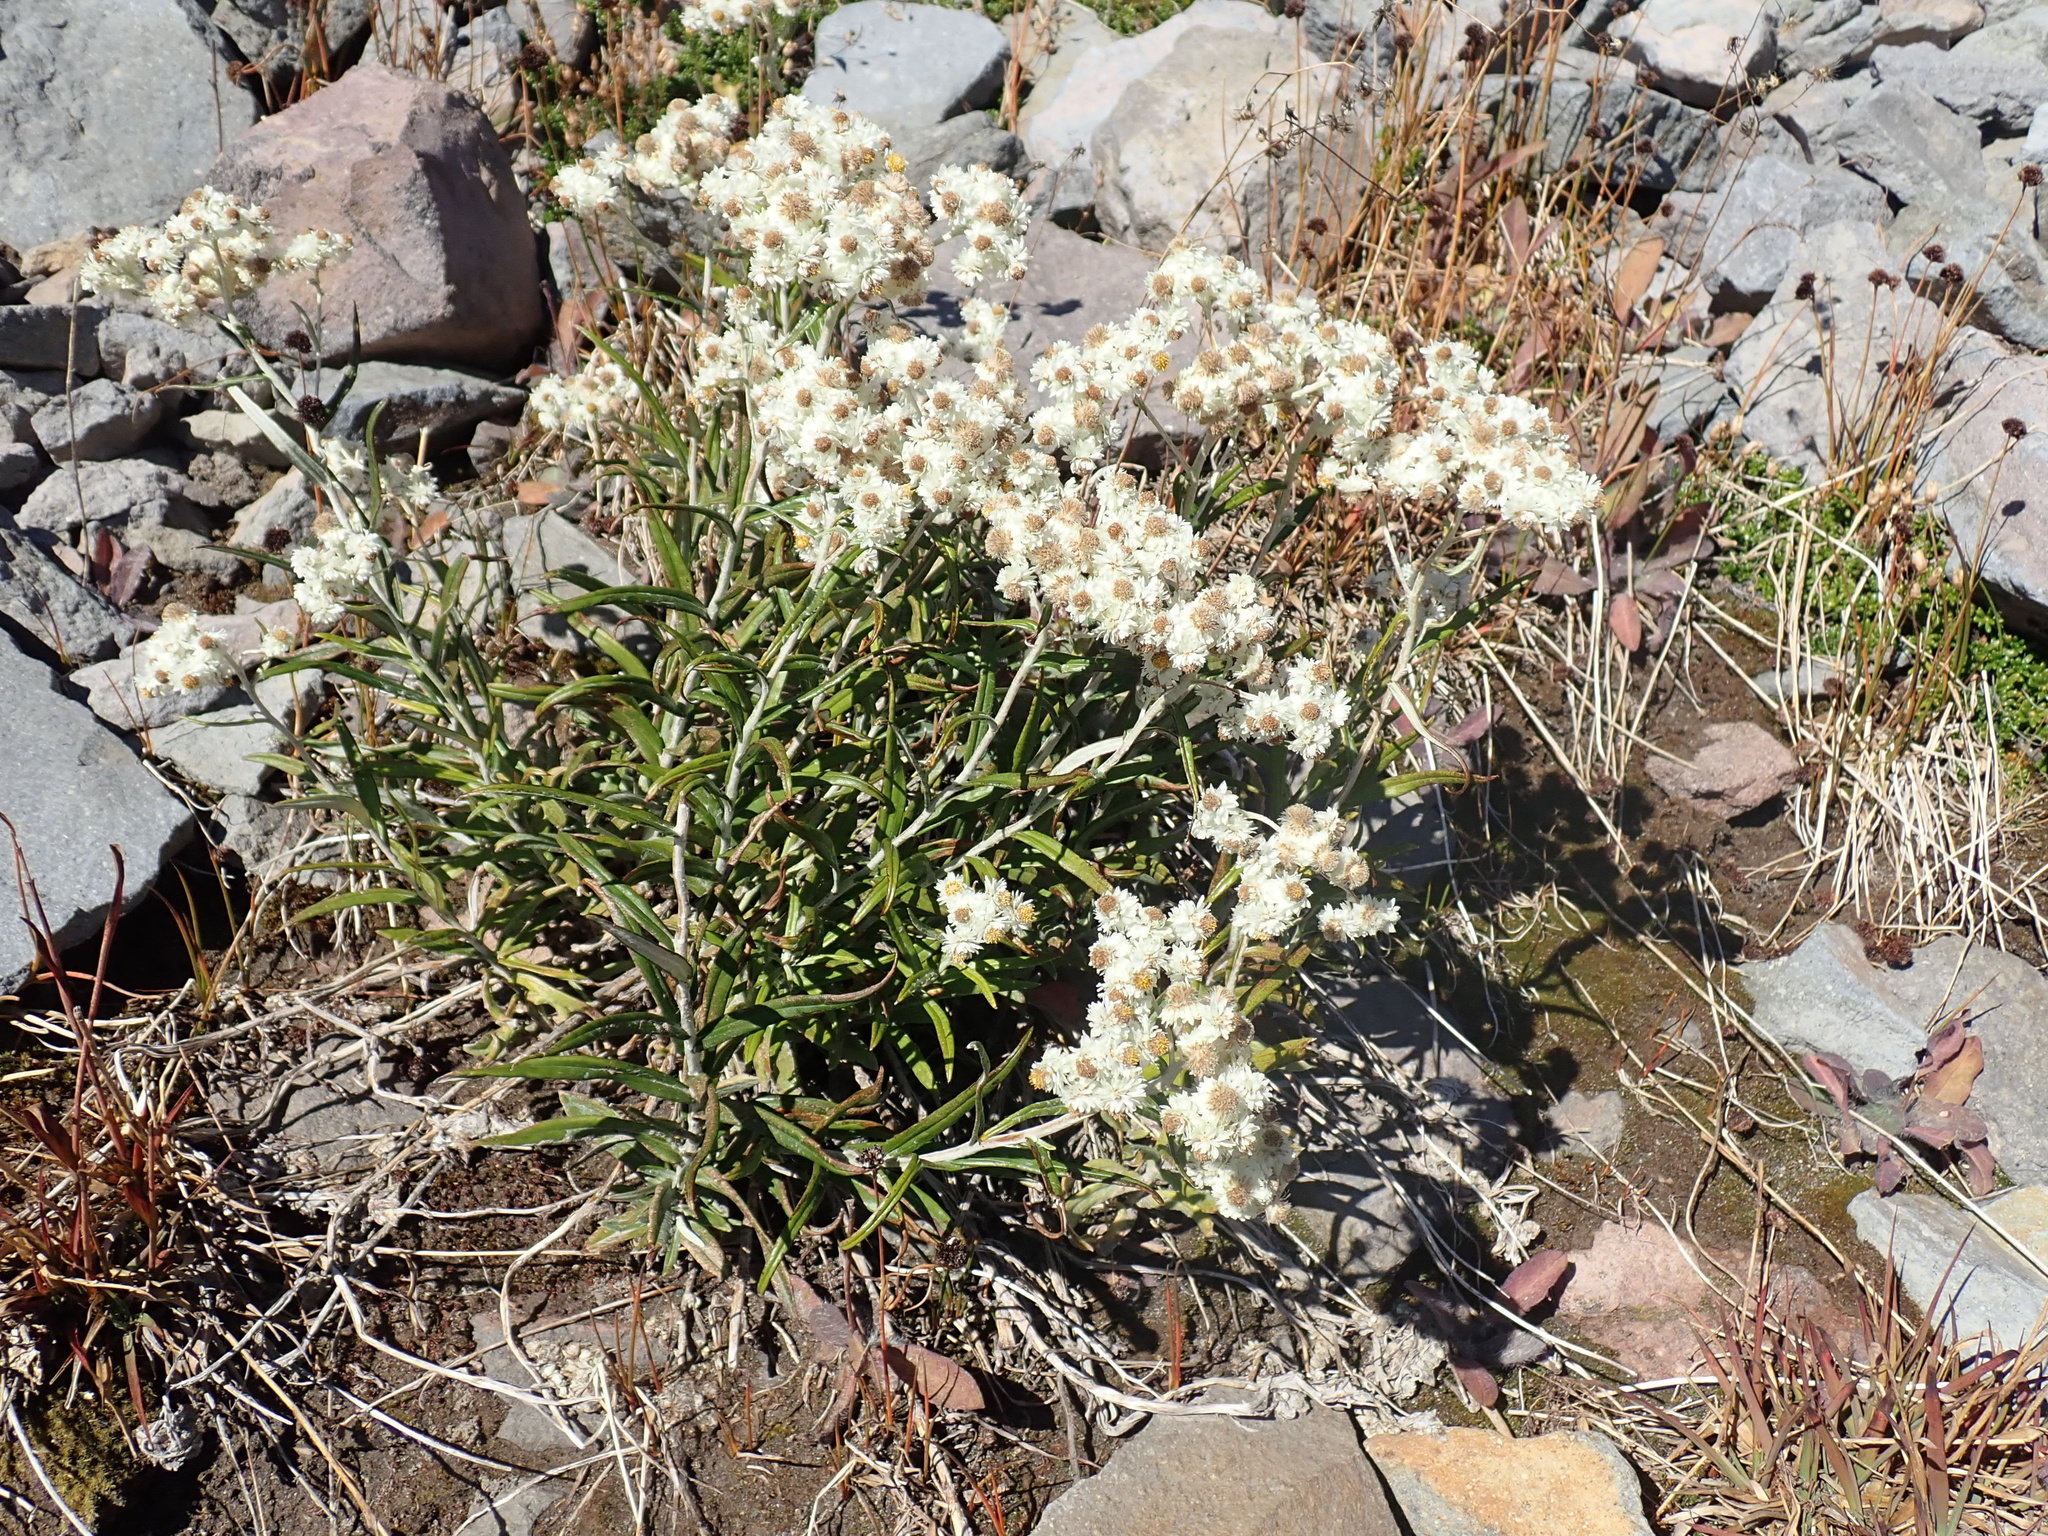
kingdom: Plantae
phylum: Tracheophyta
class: Magnoliopsida
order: Asterales
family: Asteraceae
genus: Anaphalis
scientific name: Anaphalis margaritacea
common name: Pearly everlasting
